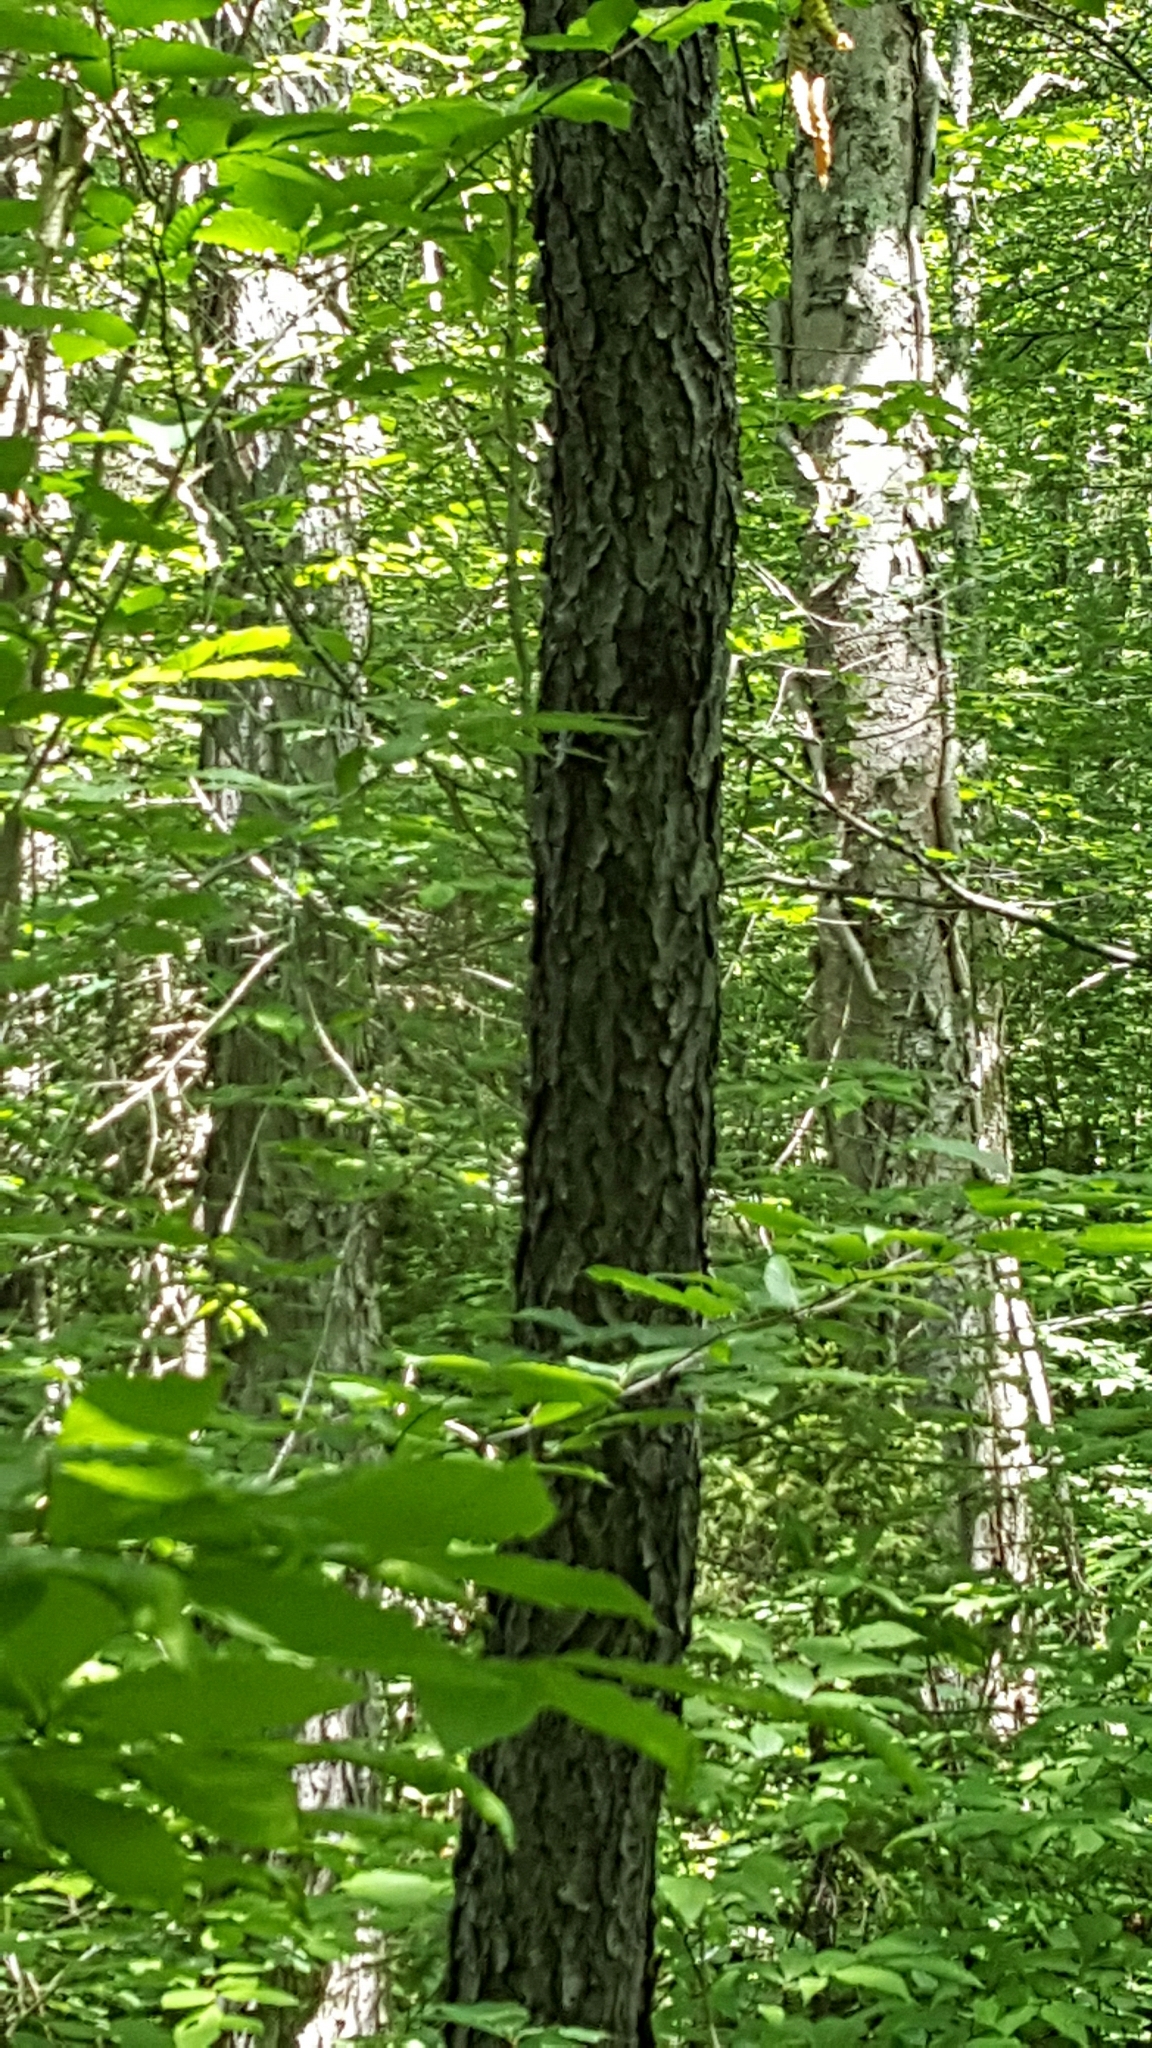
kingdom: Plantae
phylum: Tracheophyta
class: Magnoliopsida
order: Rosales
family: Rosaceae
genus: Prunus
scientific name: Prunus serotina
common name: Black cherry
